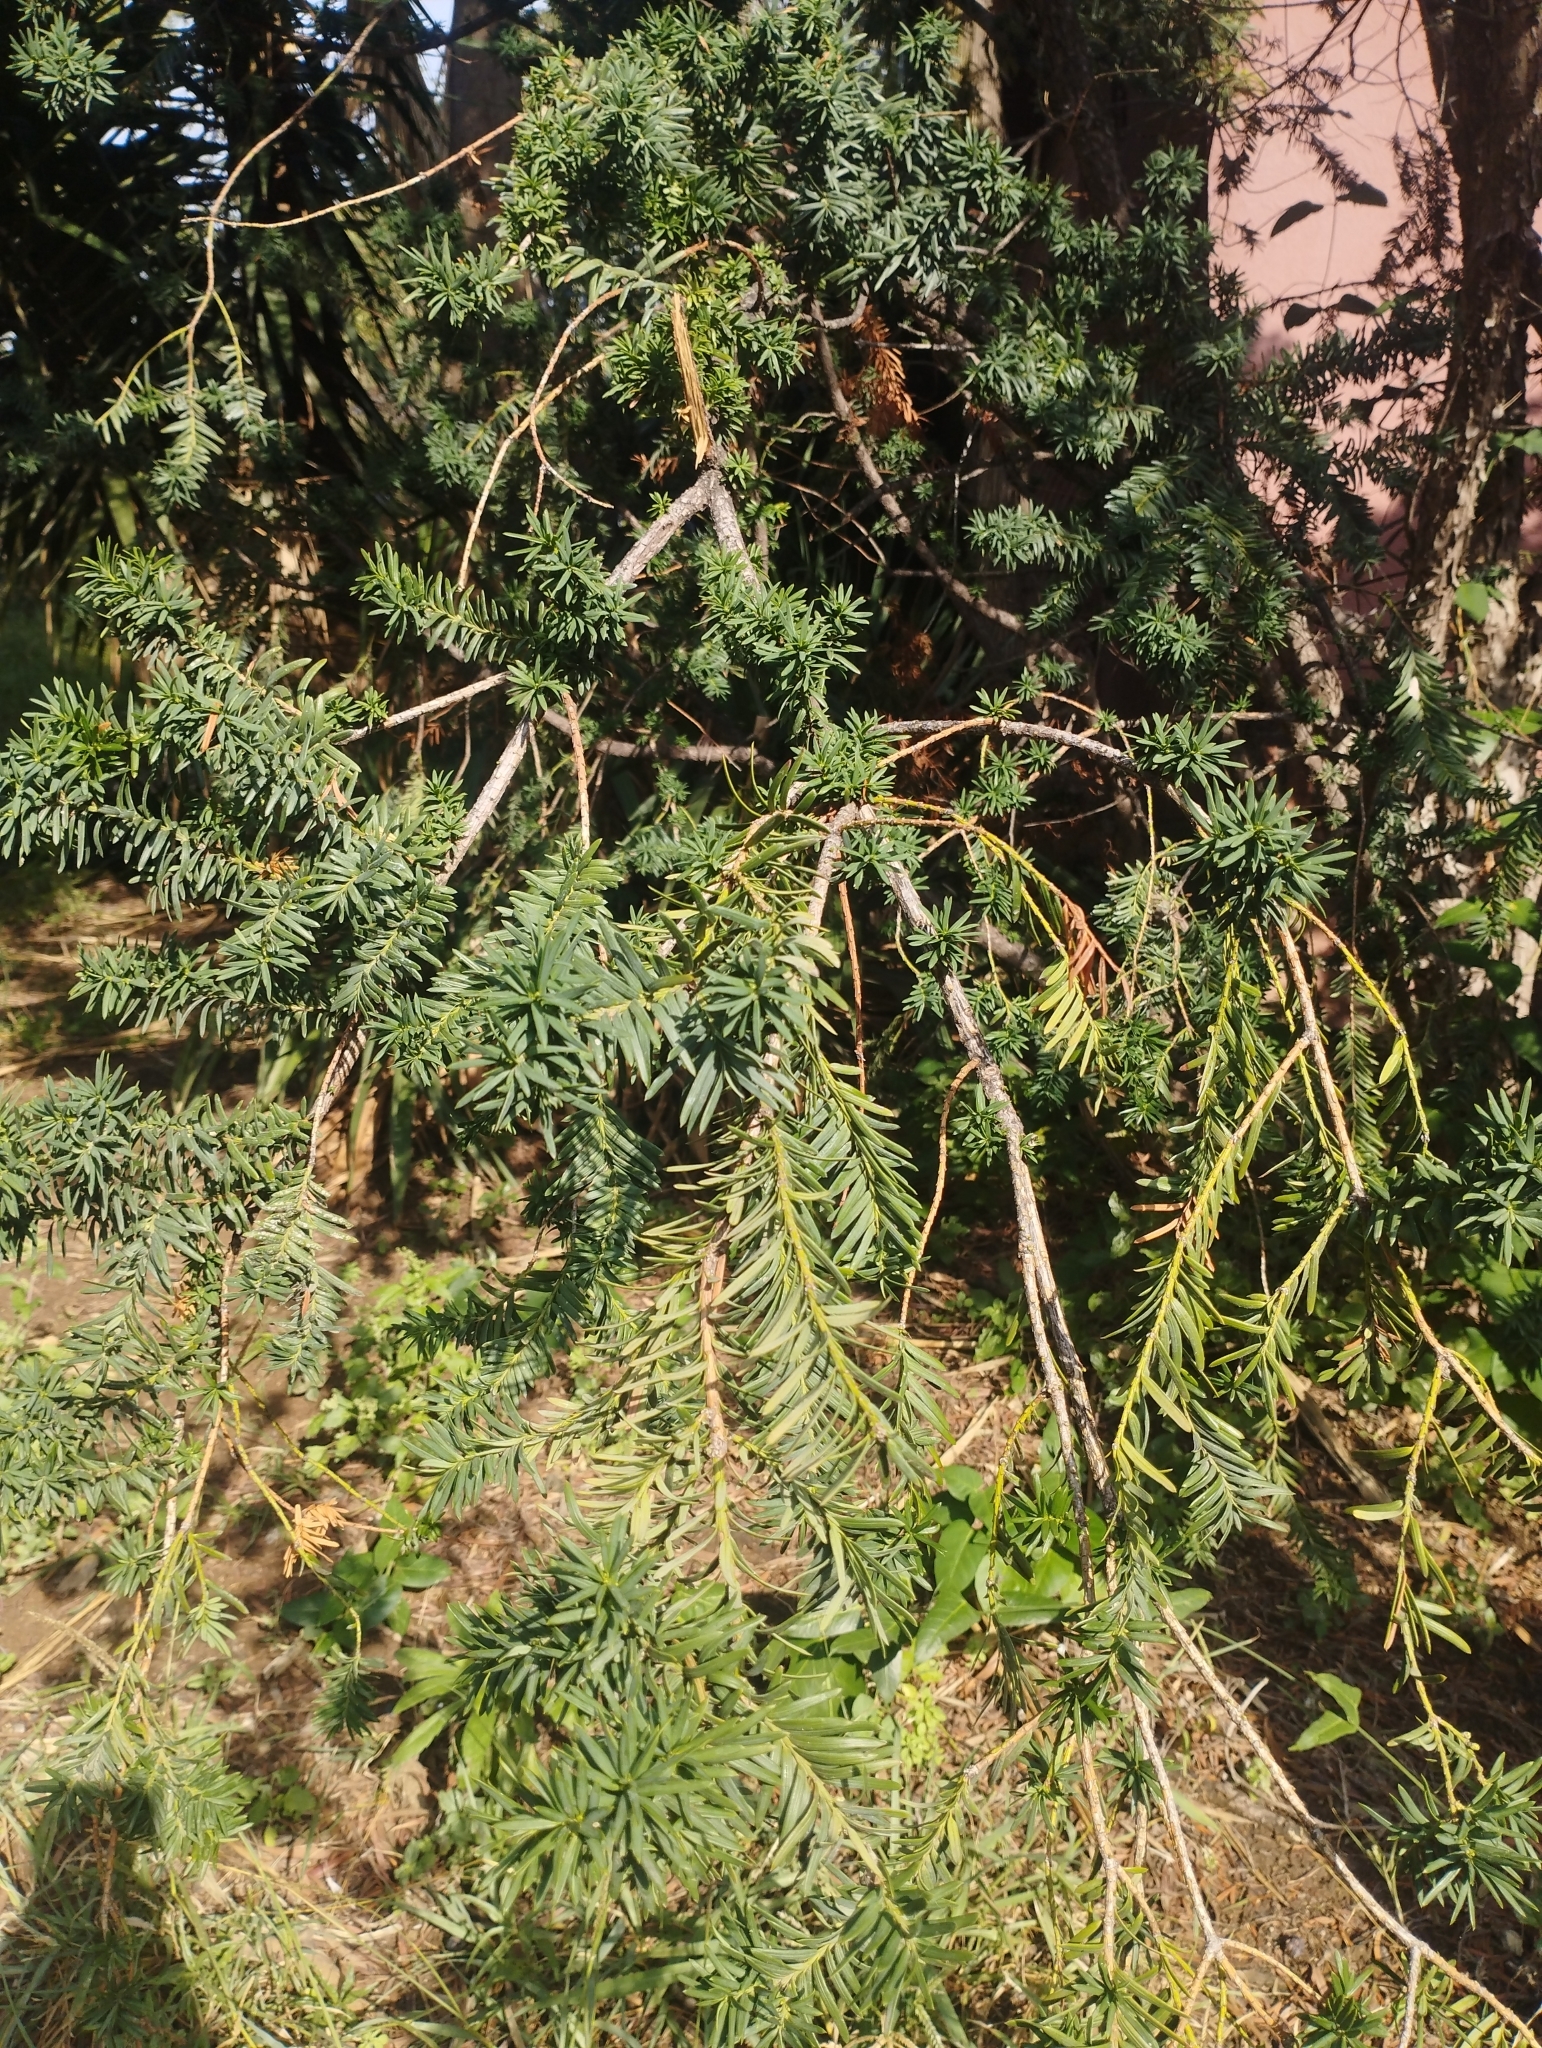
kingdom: Plantae
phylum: Tracheophyta
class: Pinopsida
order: Pinales
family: Taxaceae
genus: Taxus
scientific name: Taxus baccata
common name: Yew
